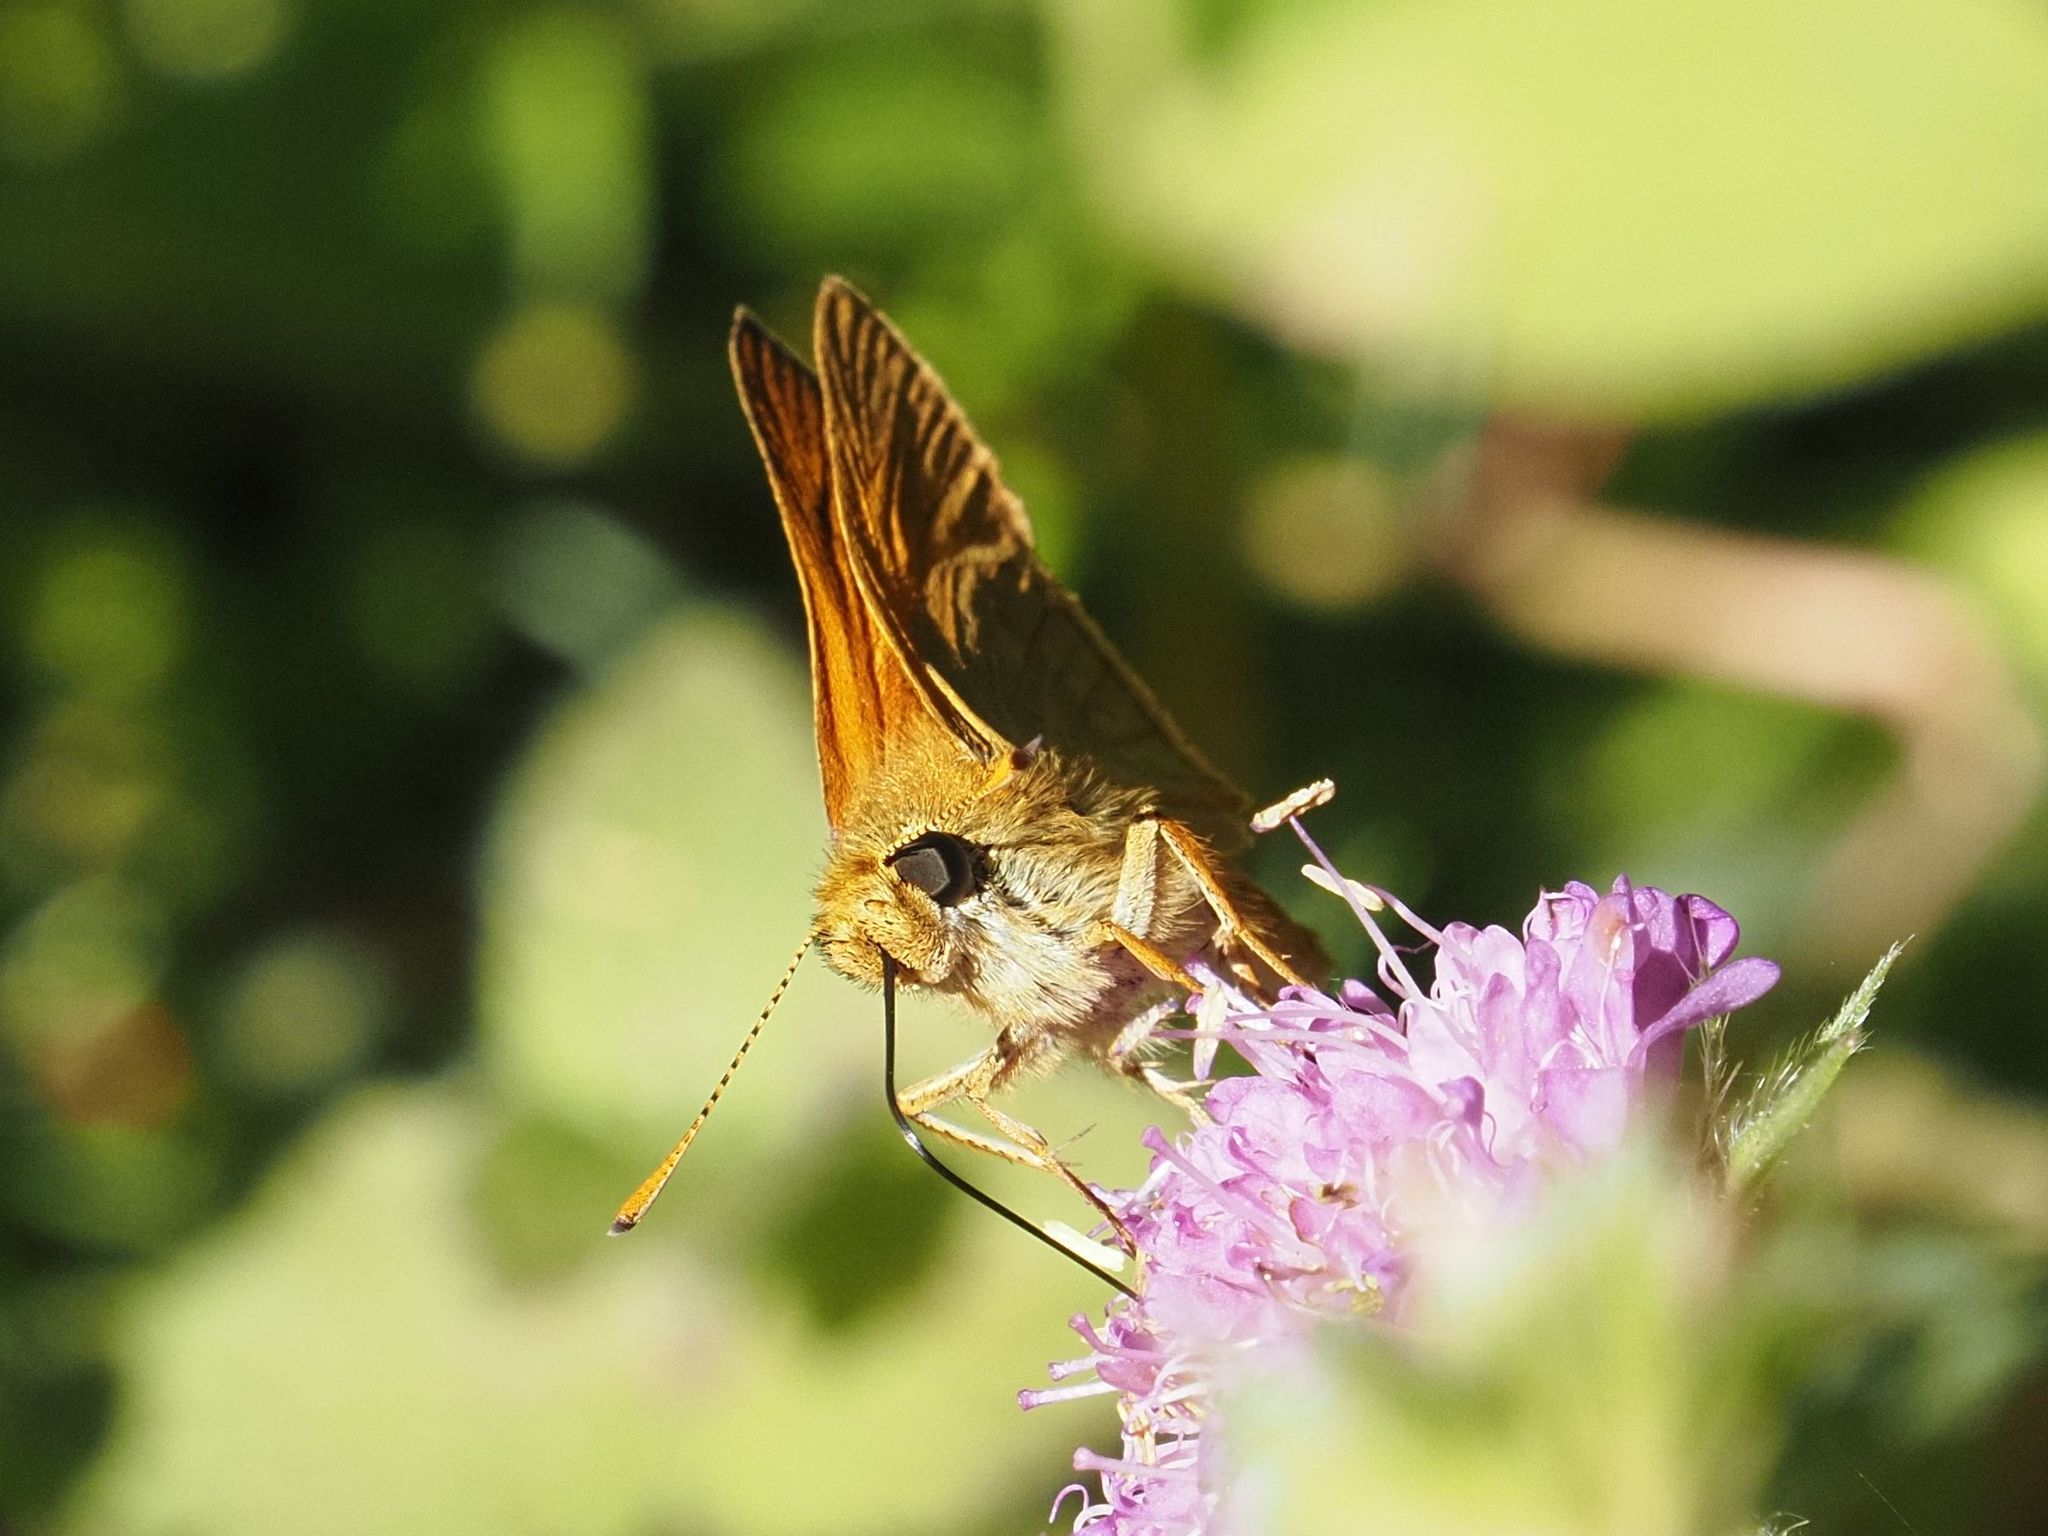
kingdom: Animalia
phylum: Arthropoda
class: Insecta
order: Lepidoptera
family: Hesperiidae
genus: Ochlodes
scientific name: Ochlodes venata
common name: Large skipper
